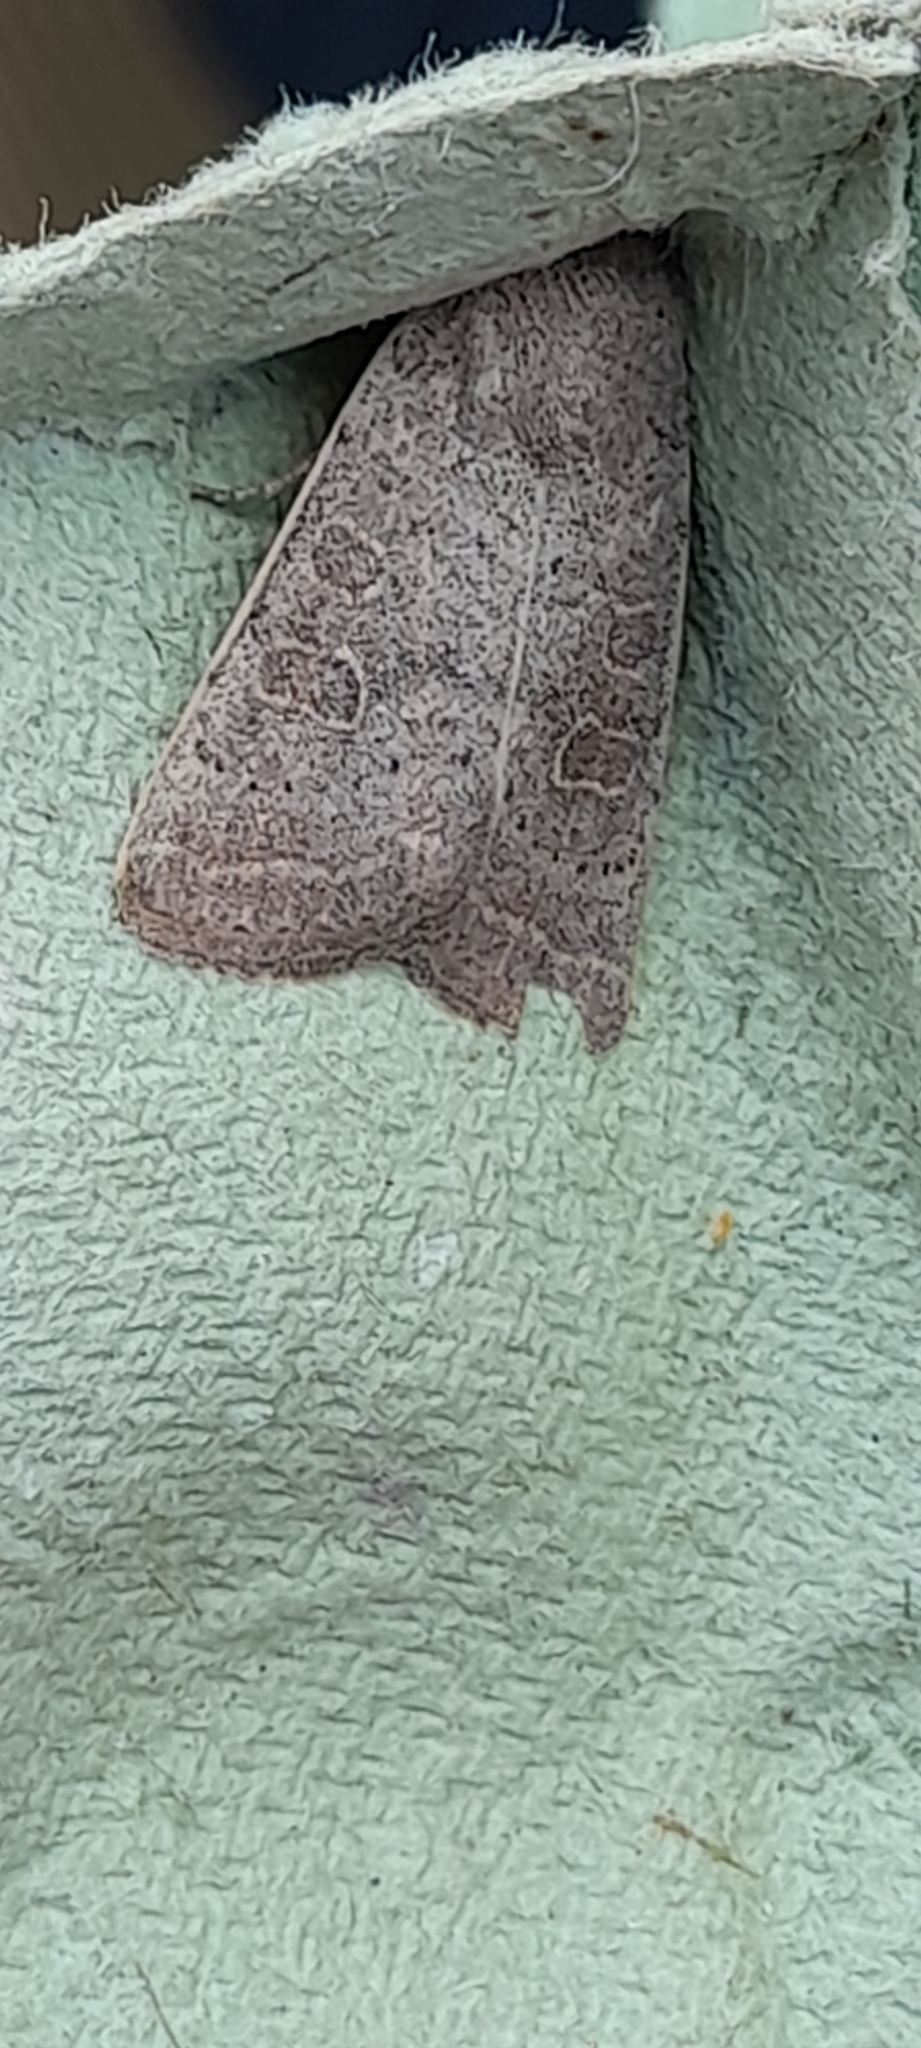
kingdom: Animalia
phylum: Arthropoda
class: Insecta
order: Lepidoptera
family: Noctuidae
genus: Hoplodrina
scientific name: Hoplodrina ambigua
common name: Vine's rustic
